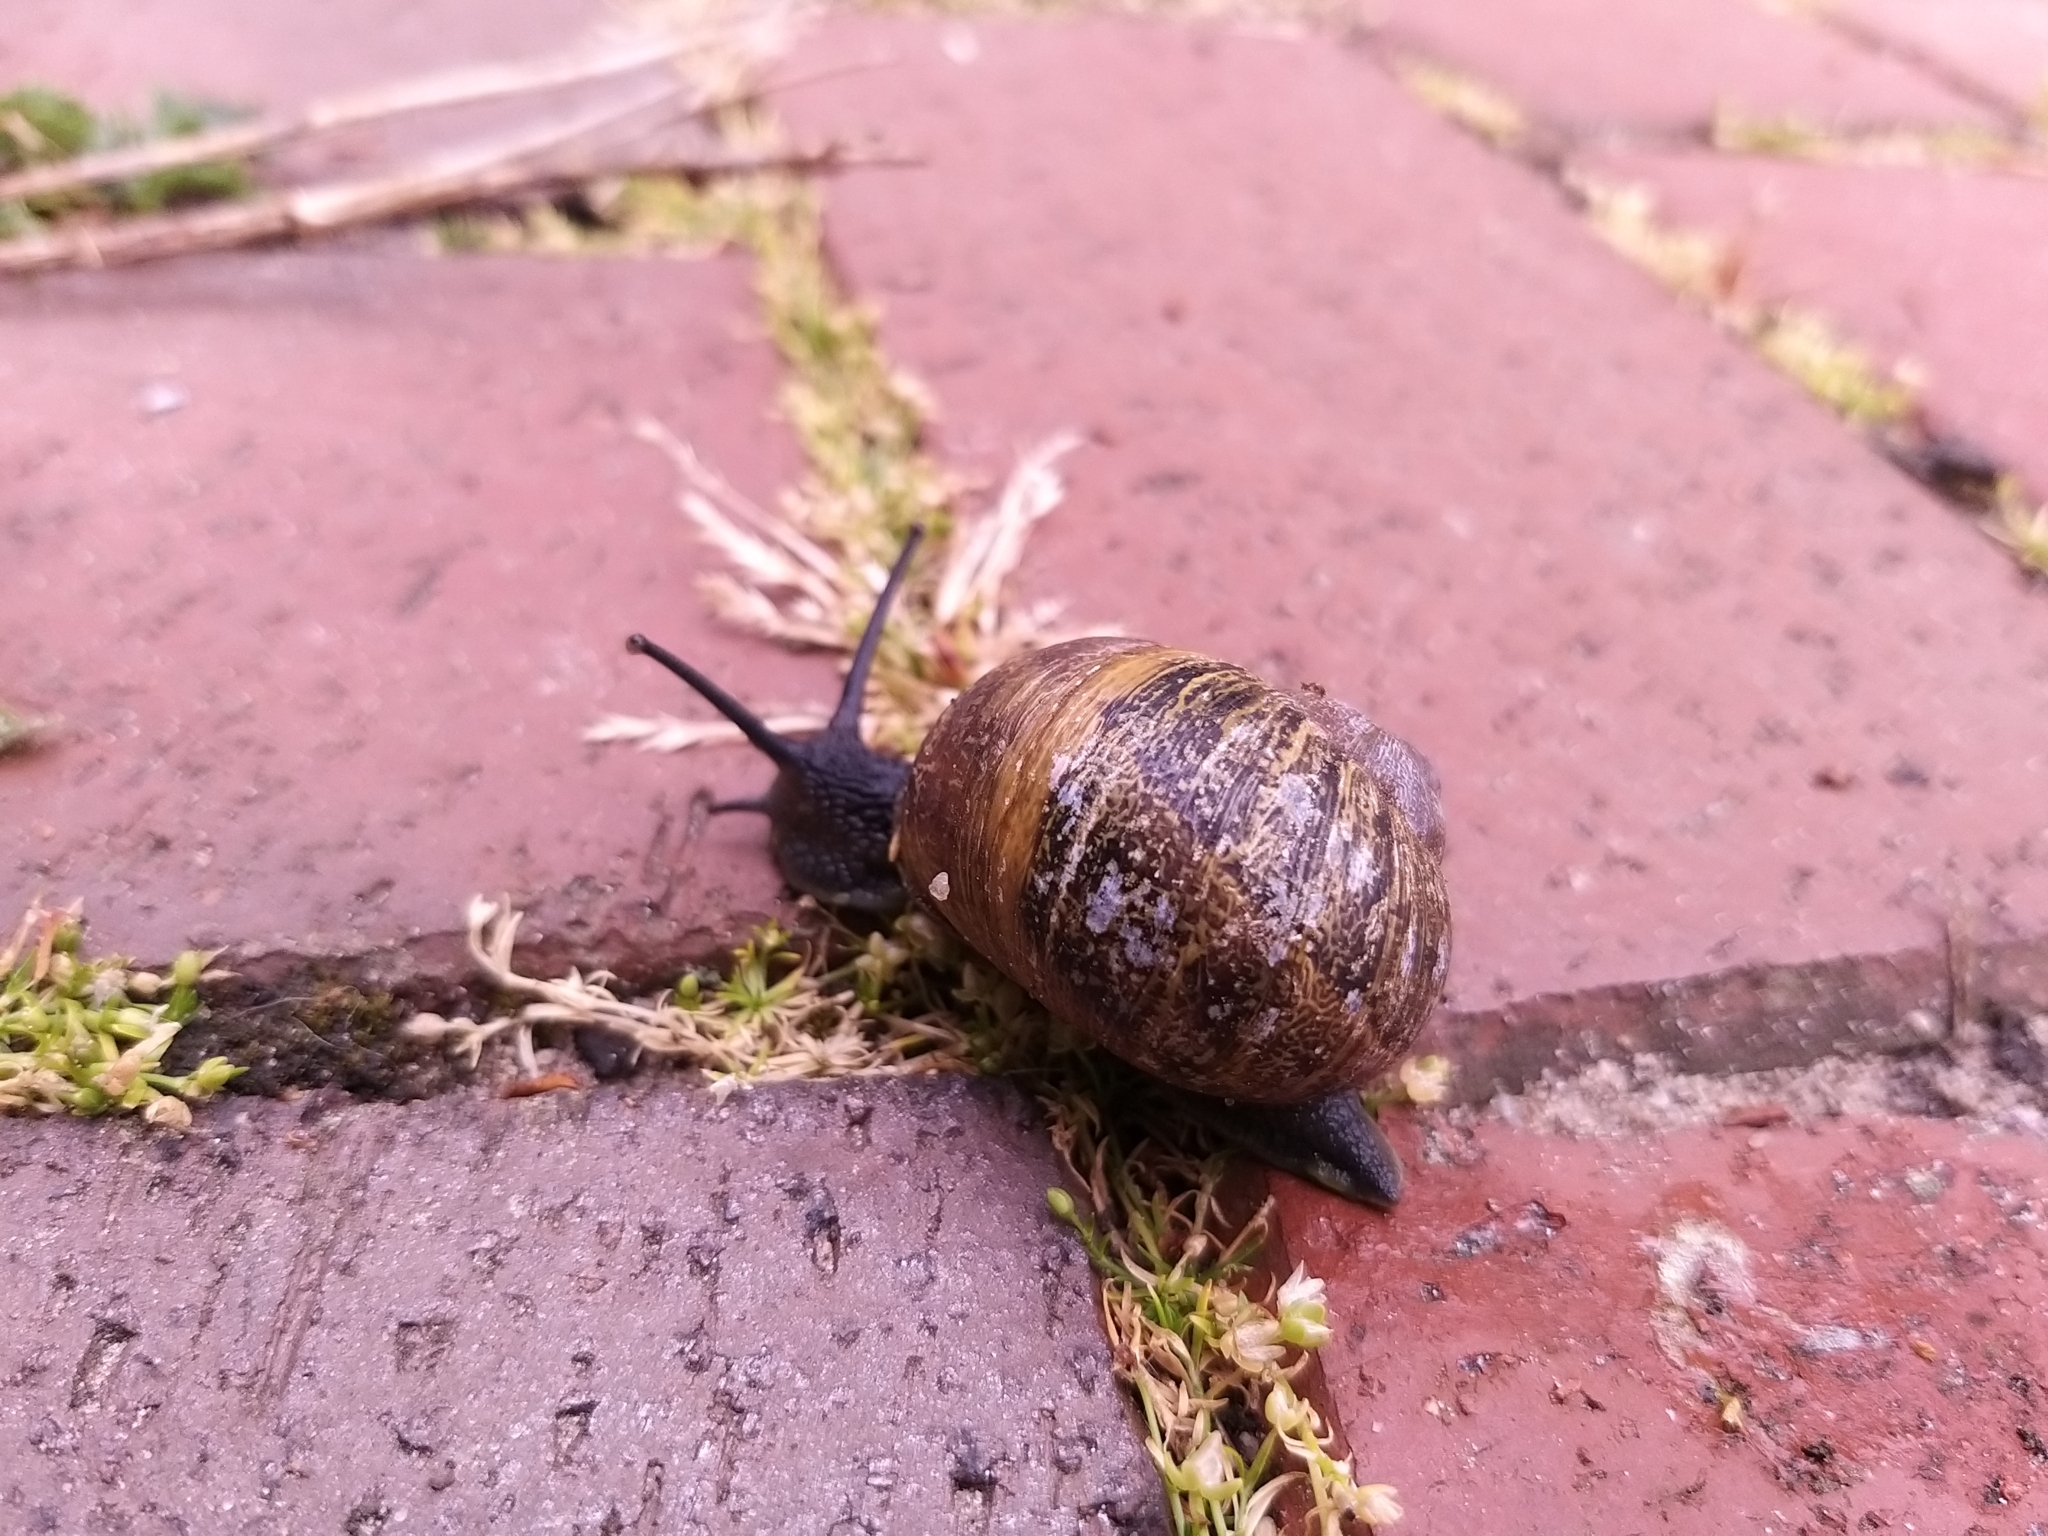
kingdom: Animalia
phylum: Mollusca
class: Gastropoda
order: Stylommatophora
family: Helicidae
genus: Cornu
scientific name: Cornu aspersum
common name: Brown garden snail
